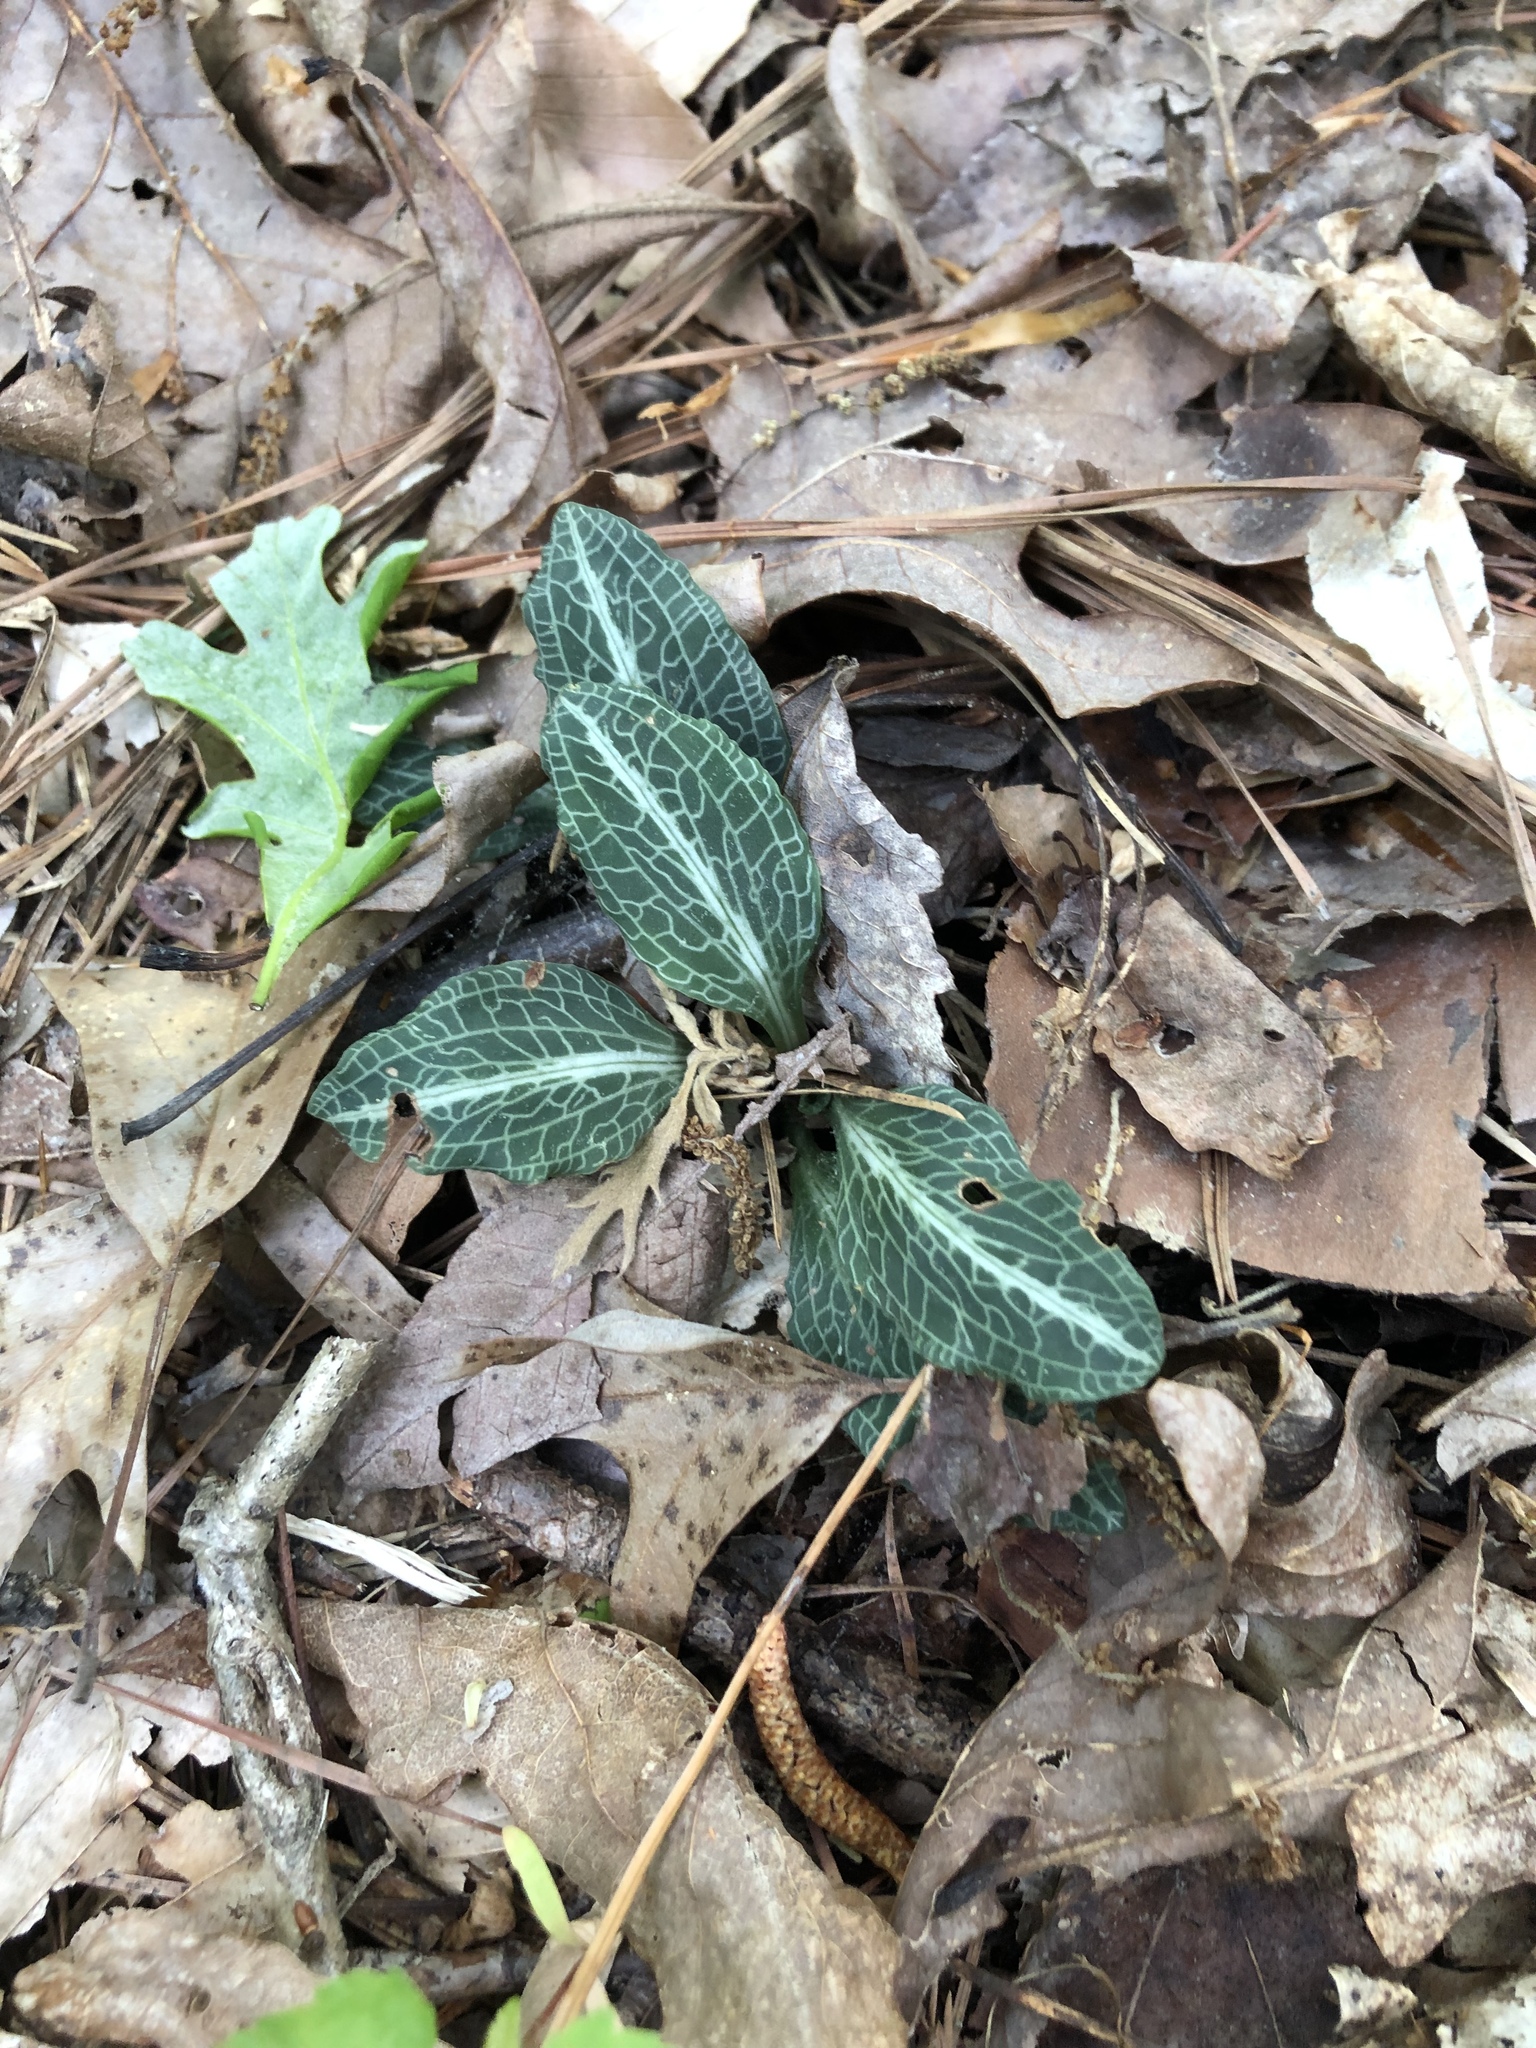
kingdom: Plantae
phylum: Tracheophyta
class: Liliopsida
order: Asparagales
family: Orchidaceae
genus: Goodyera
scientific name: Goodyera pubescens
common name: Downy rattlesnake-plantain
